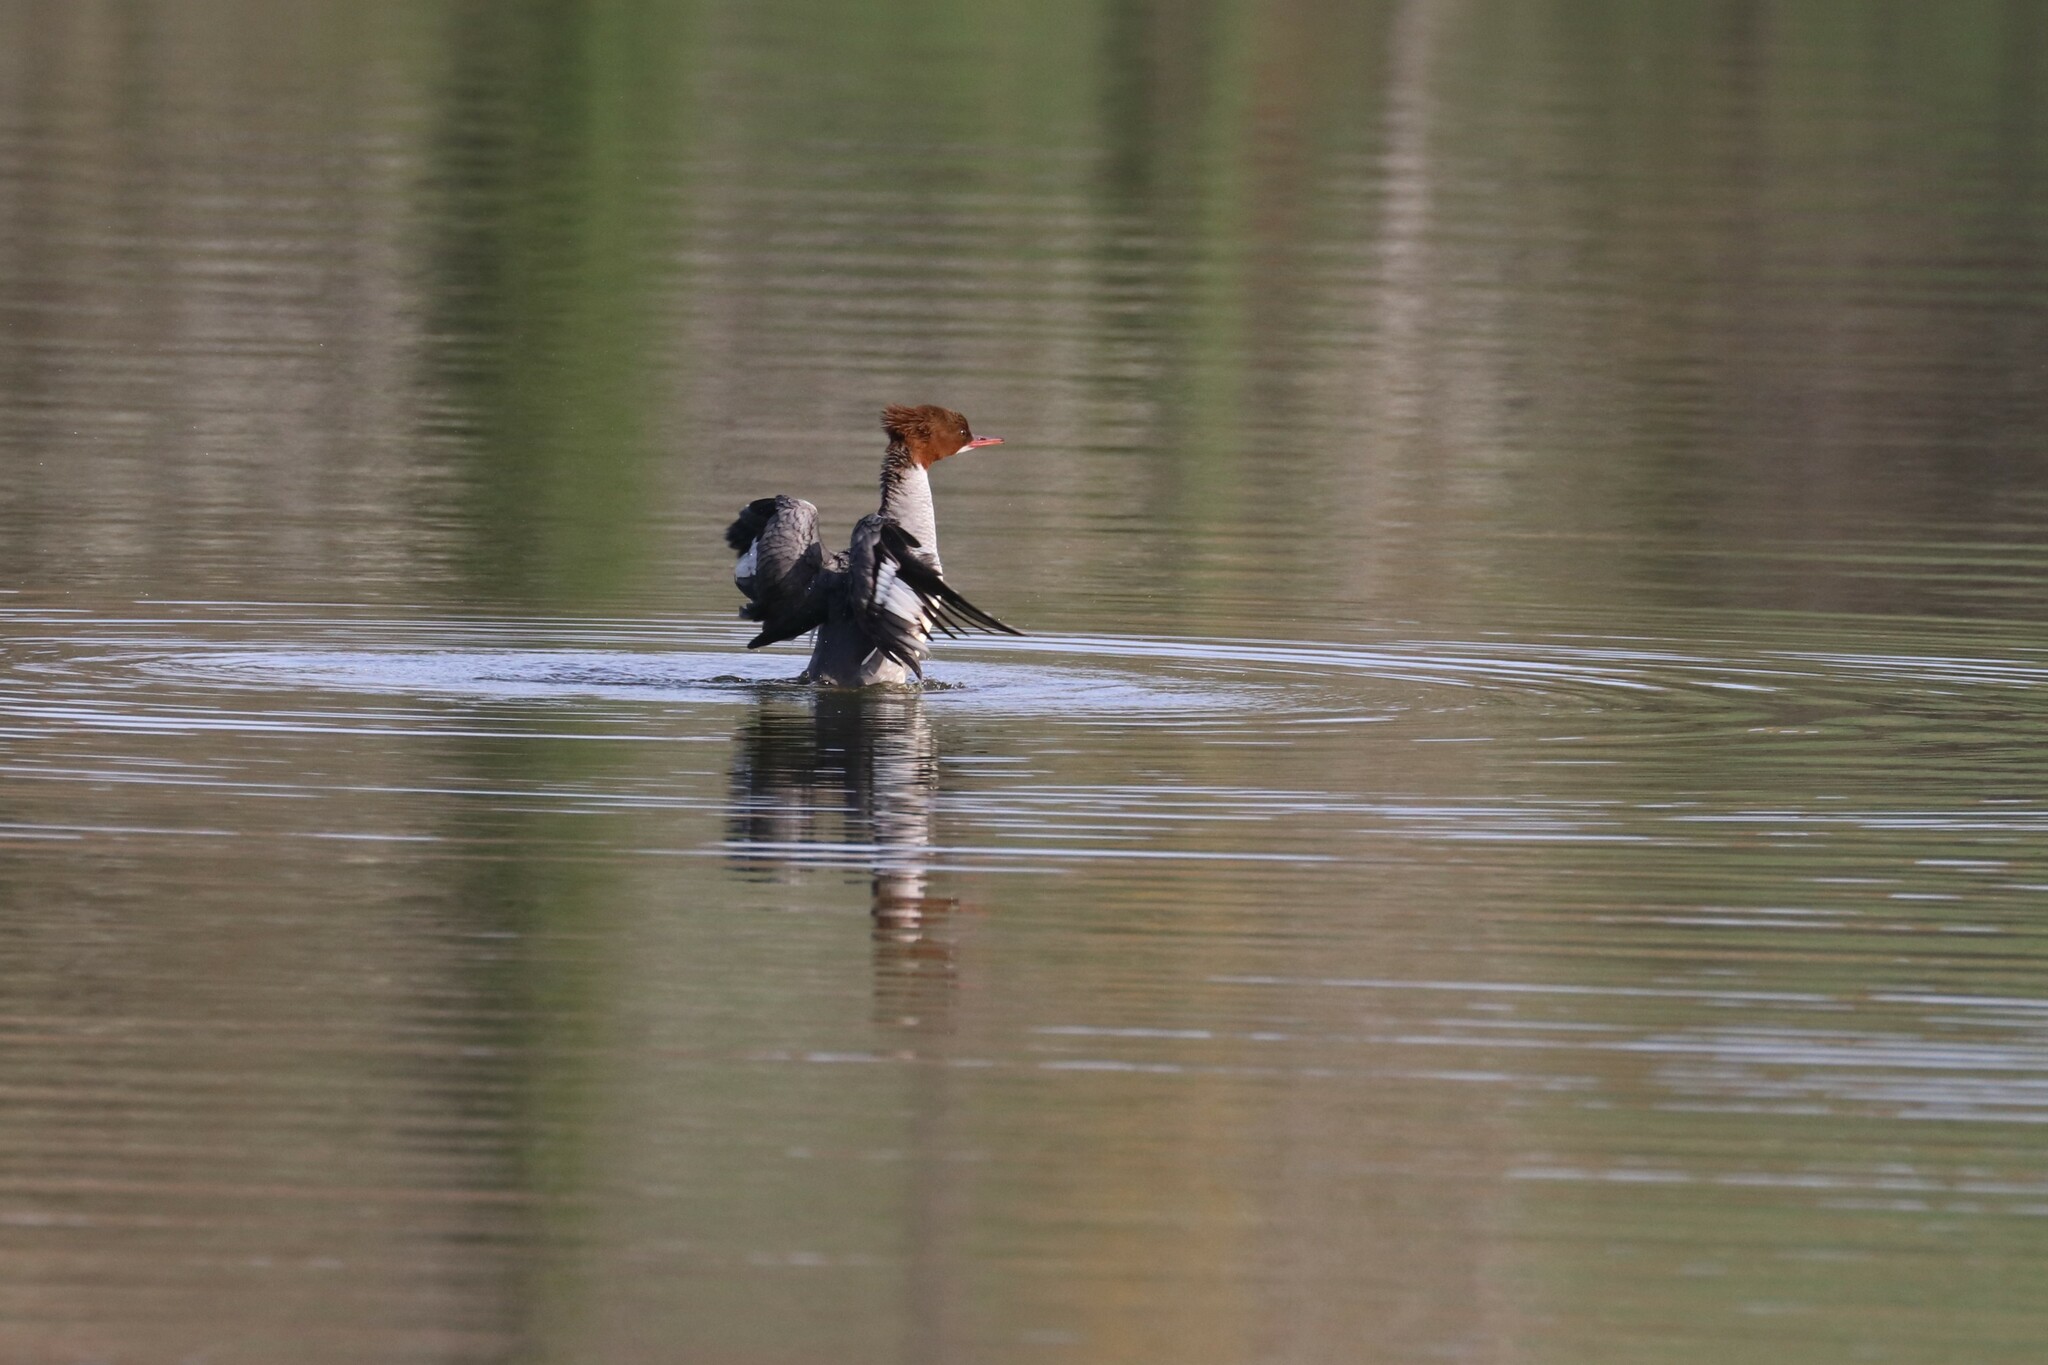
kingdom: Animalia
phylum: Chordata
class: Aves
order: Anseriformes
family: Anatidae
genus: Mergus
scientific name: Mergus merganser
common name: Common merganser
